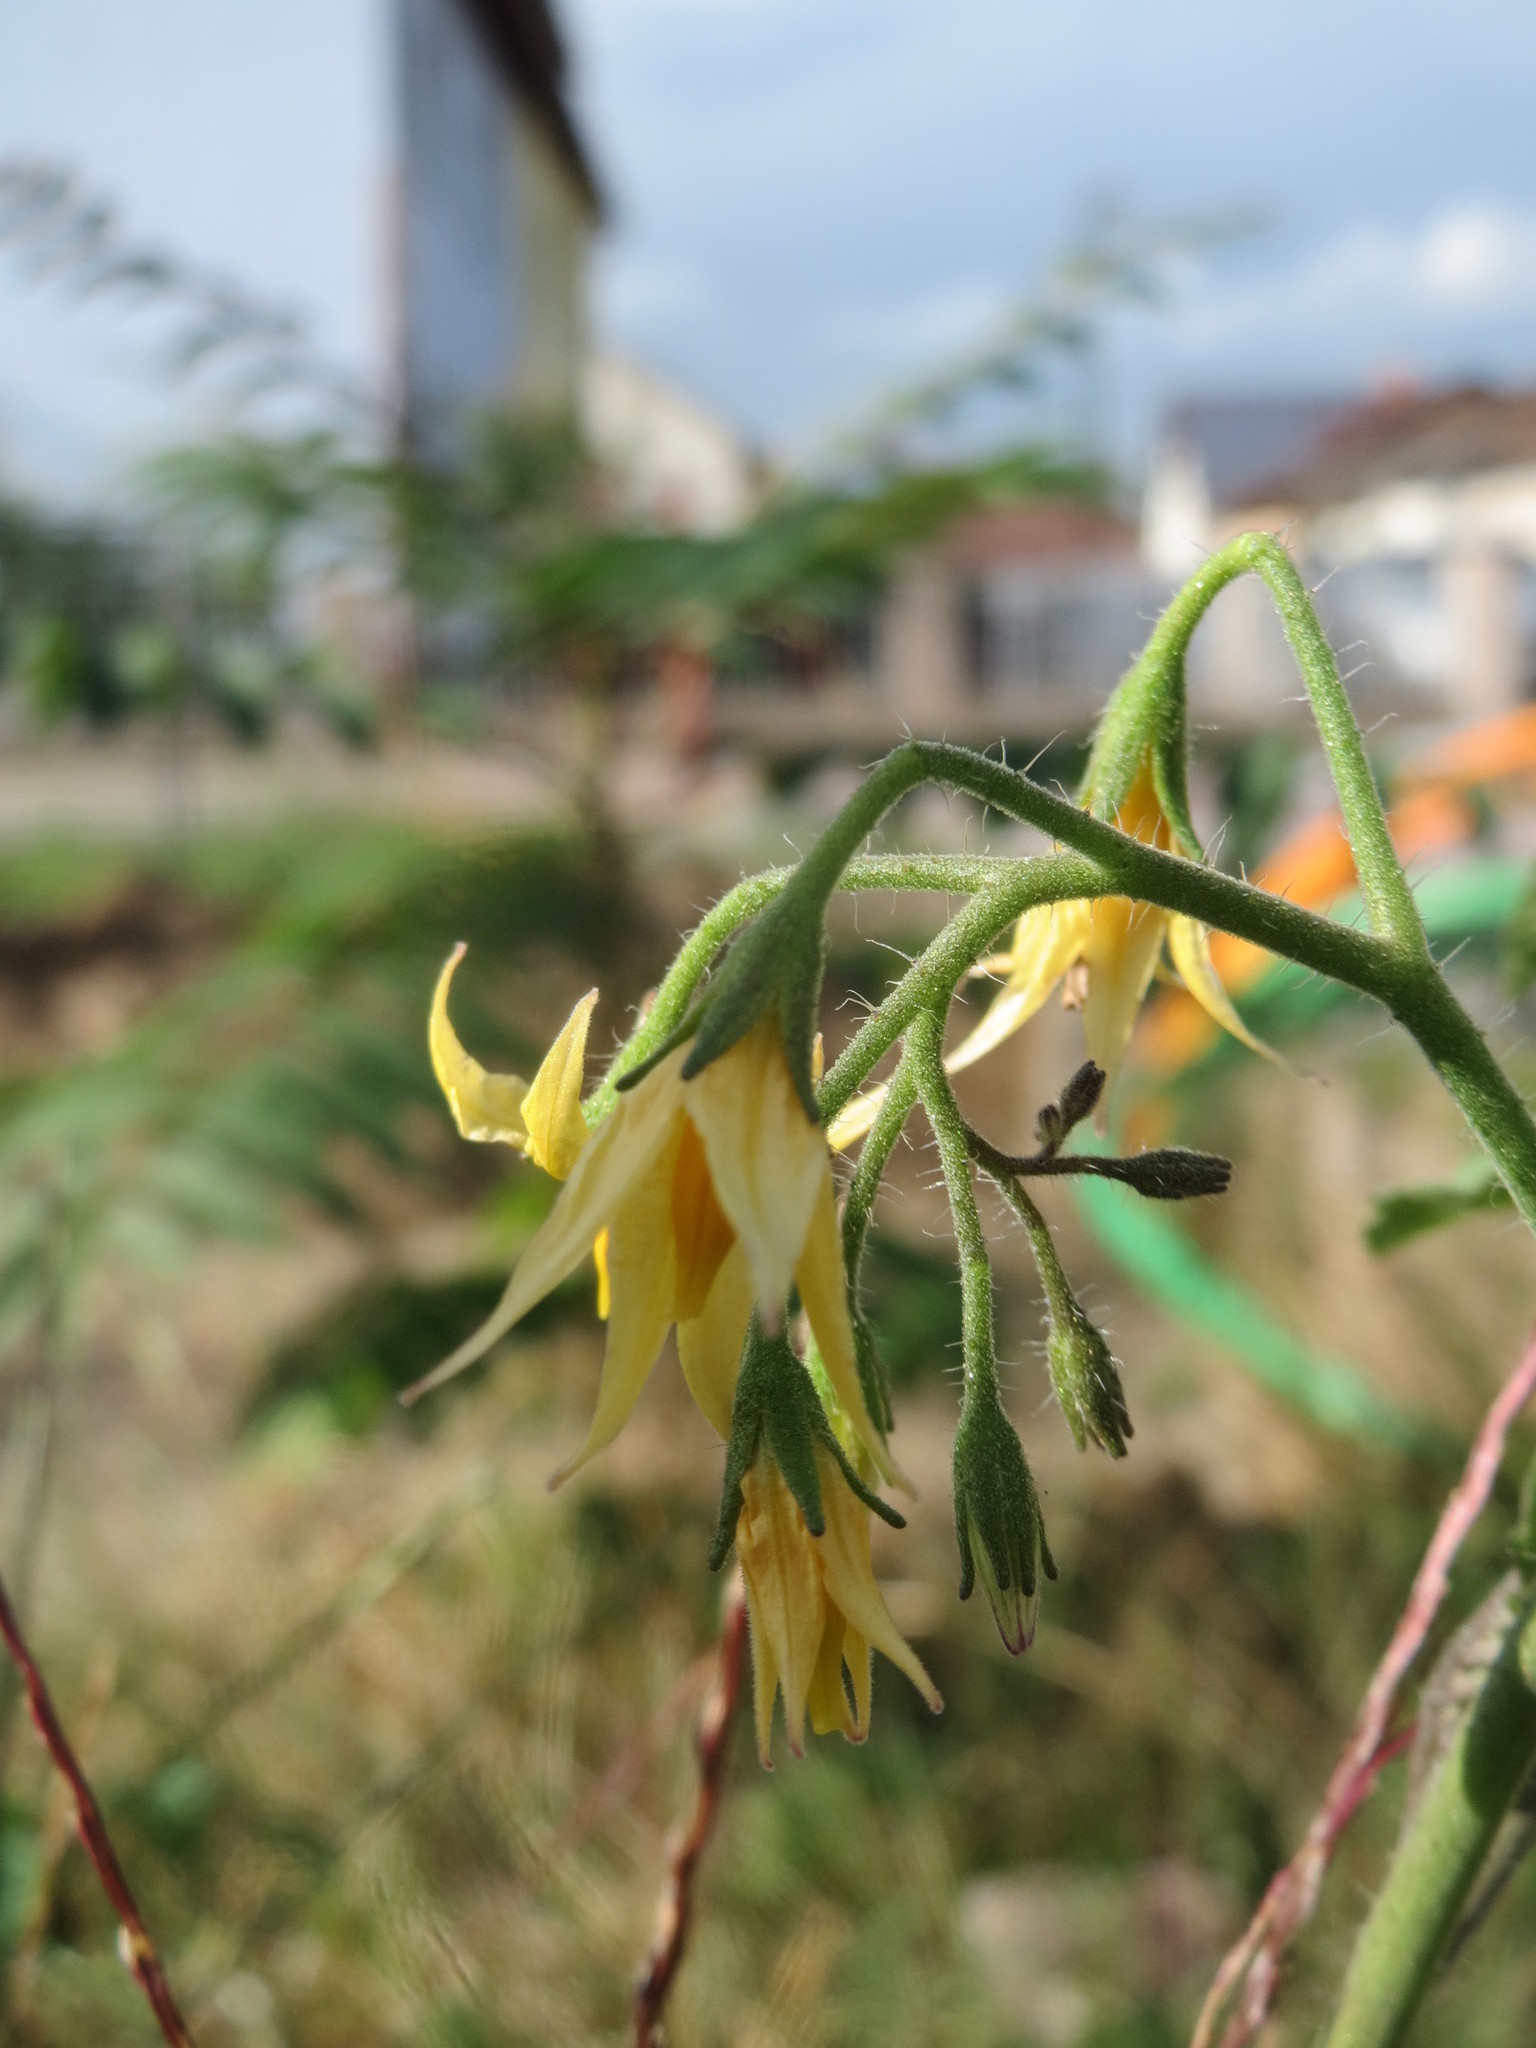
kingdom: Plantae
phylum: Tracheophyta
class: Magnoliopsida
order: Solanales
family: Solanaceae
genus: Solanum
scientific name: Solanum lycopersicum
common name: Garden tomato
